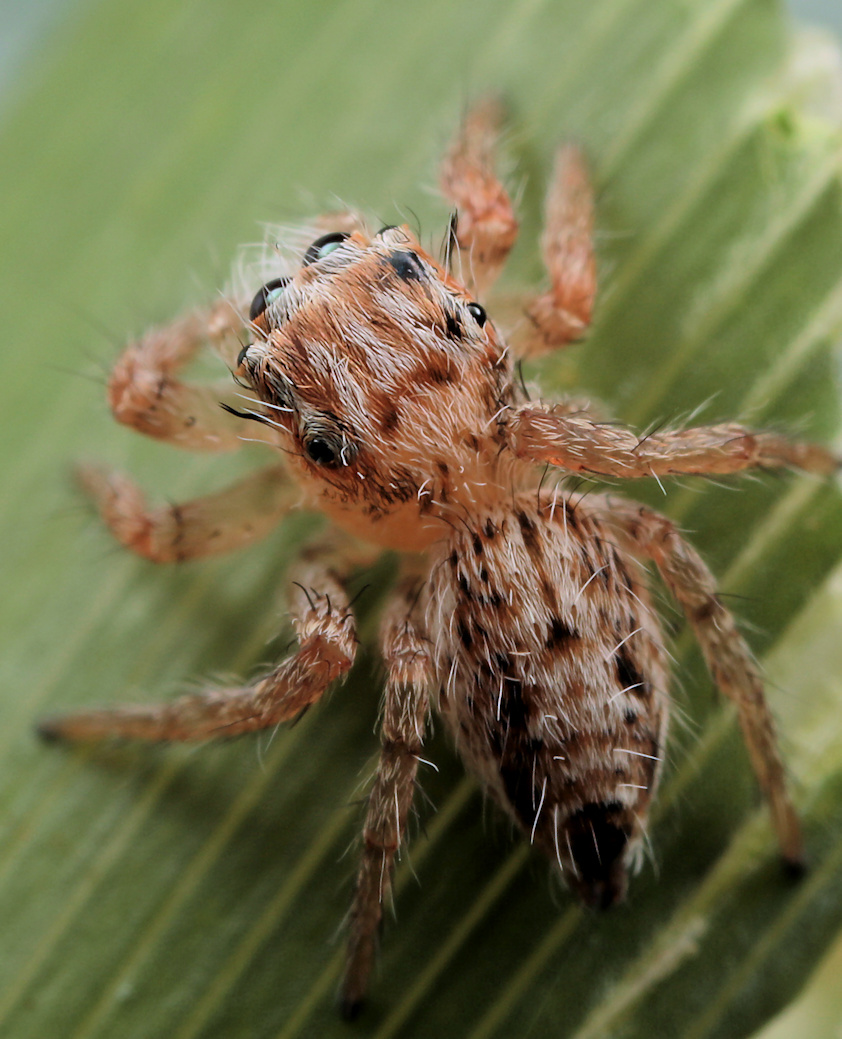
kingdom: Animalia
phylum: Arthropoda
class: Arachnida
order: Araneae
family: Salticidae
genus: Hyllus
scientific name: Hyllus brevitarsis
